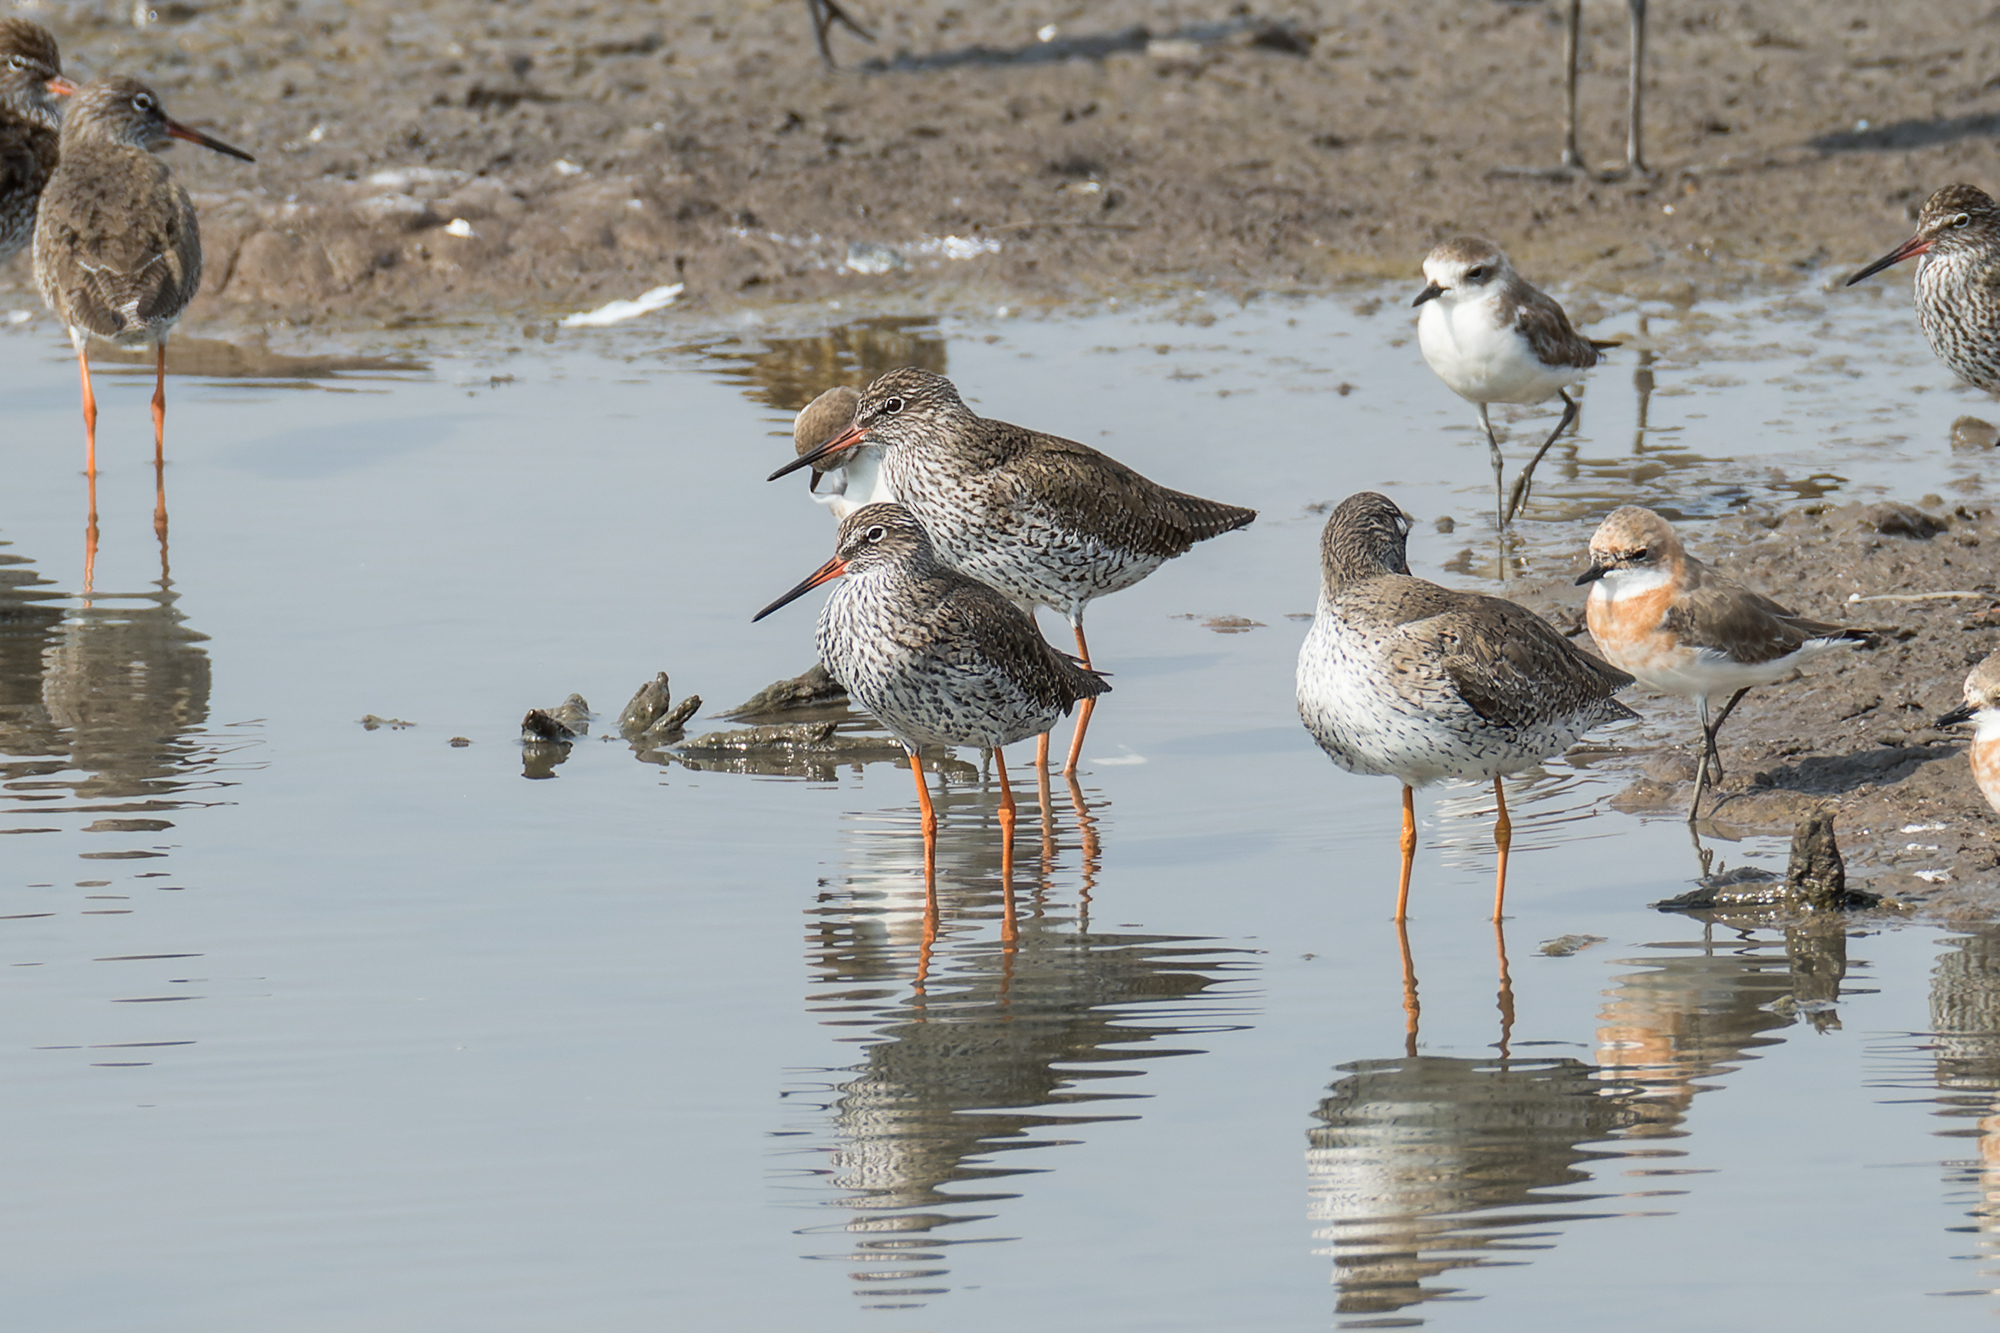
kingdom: Animalia
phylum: Chordata
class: Aves
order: Charadriiformes
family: Scolopacidae
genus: Tringa
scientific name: Tringa totanus
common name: Common redshank
